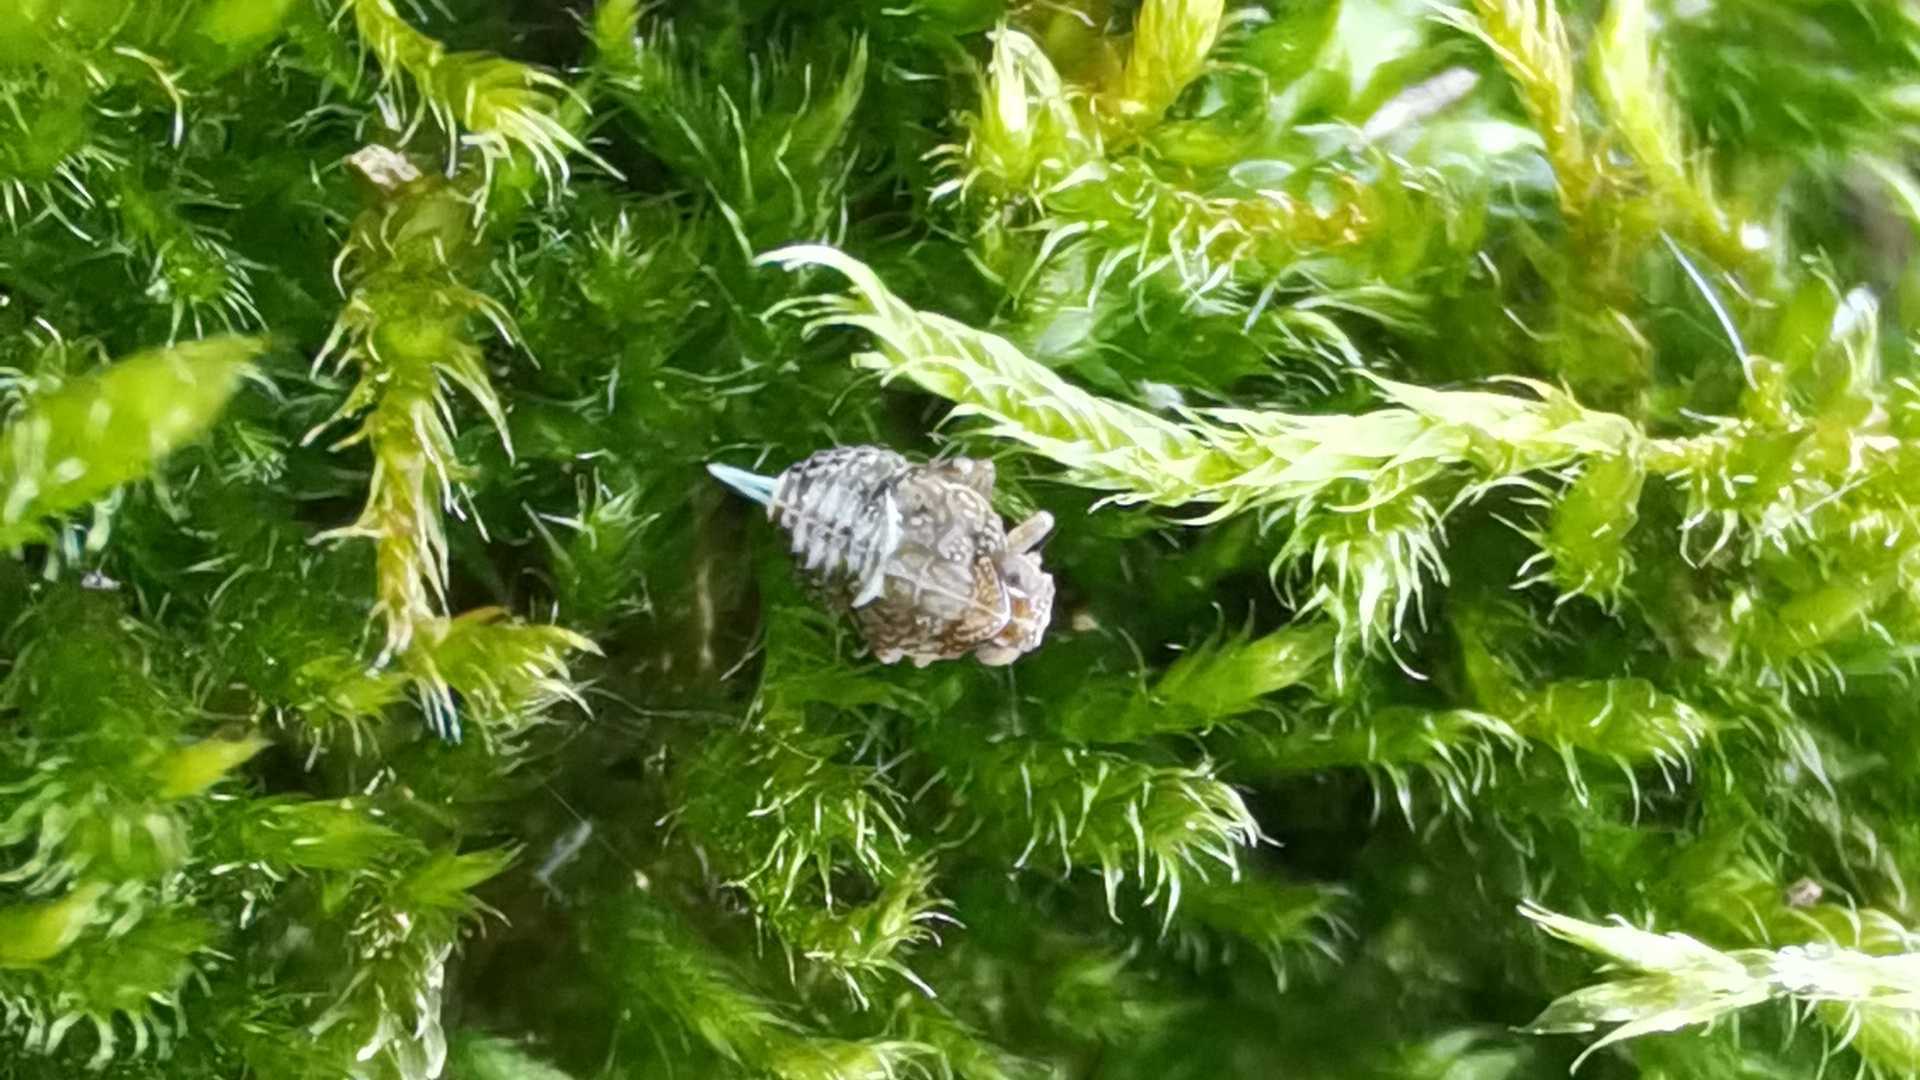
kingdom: Animalia
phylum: Arthropoda
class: Insecta
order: Hemiptera
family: Issidae
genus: Issus
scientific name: Issus
